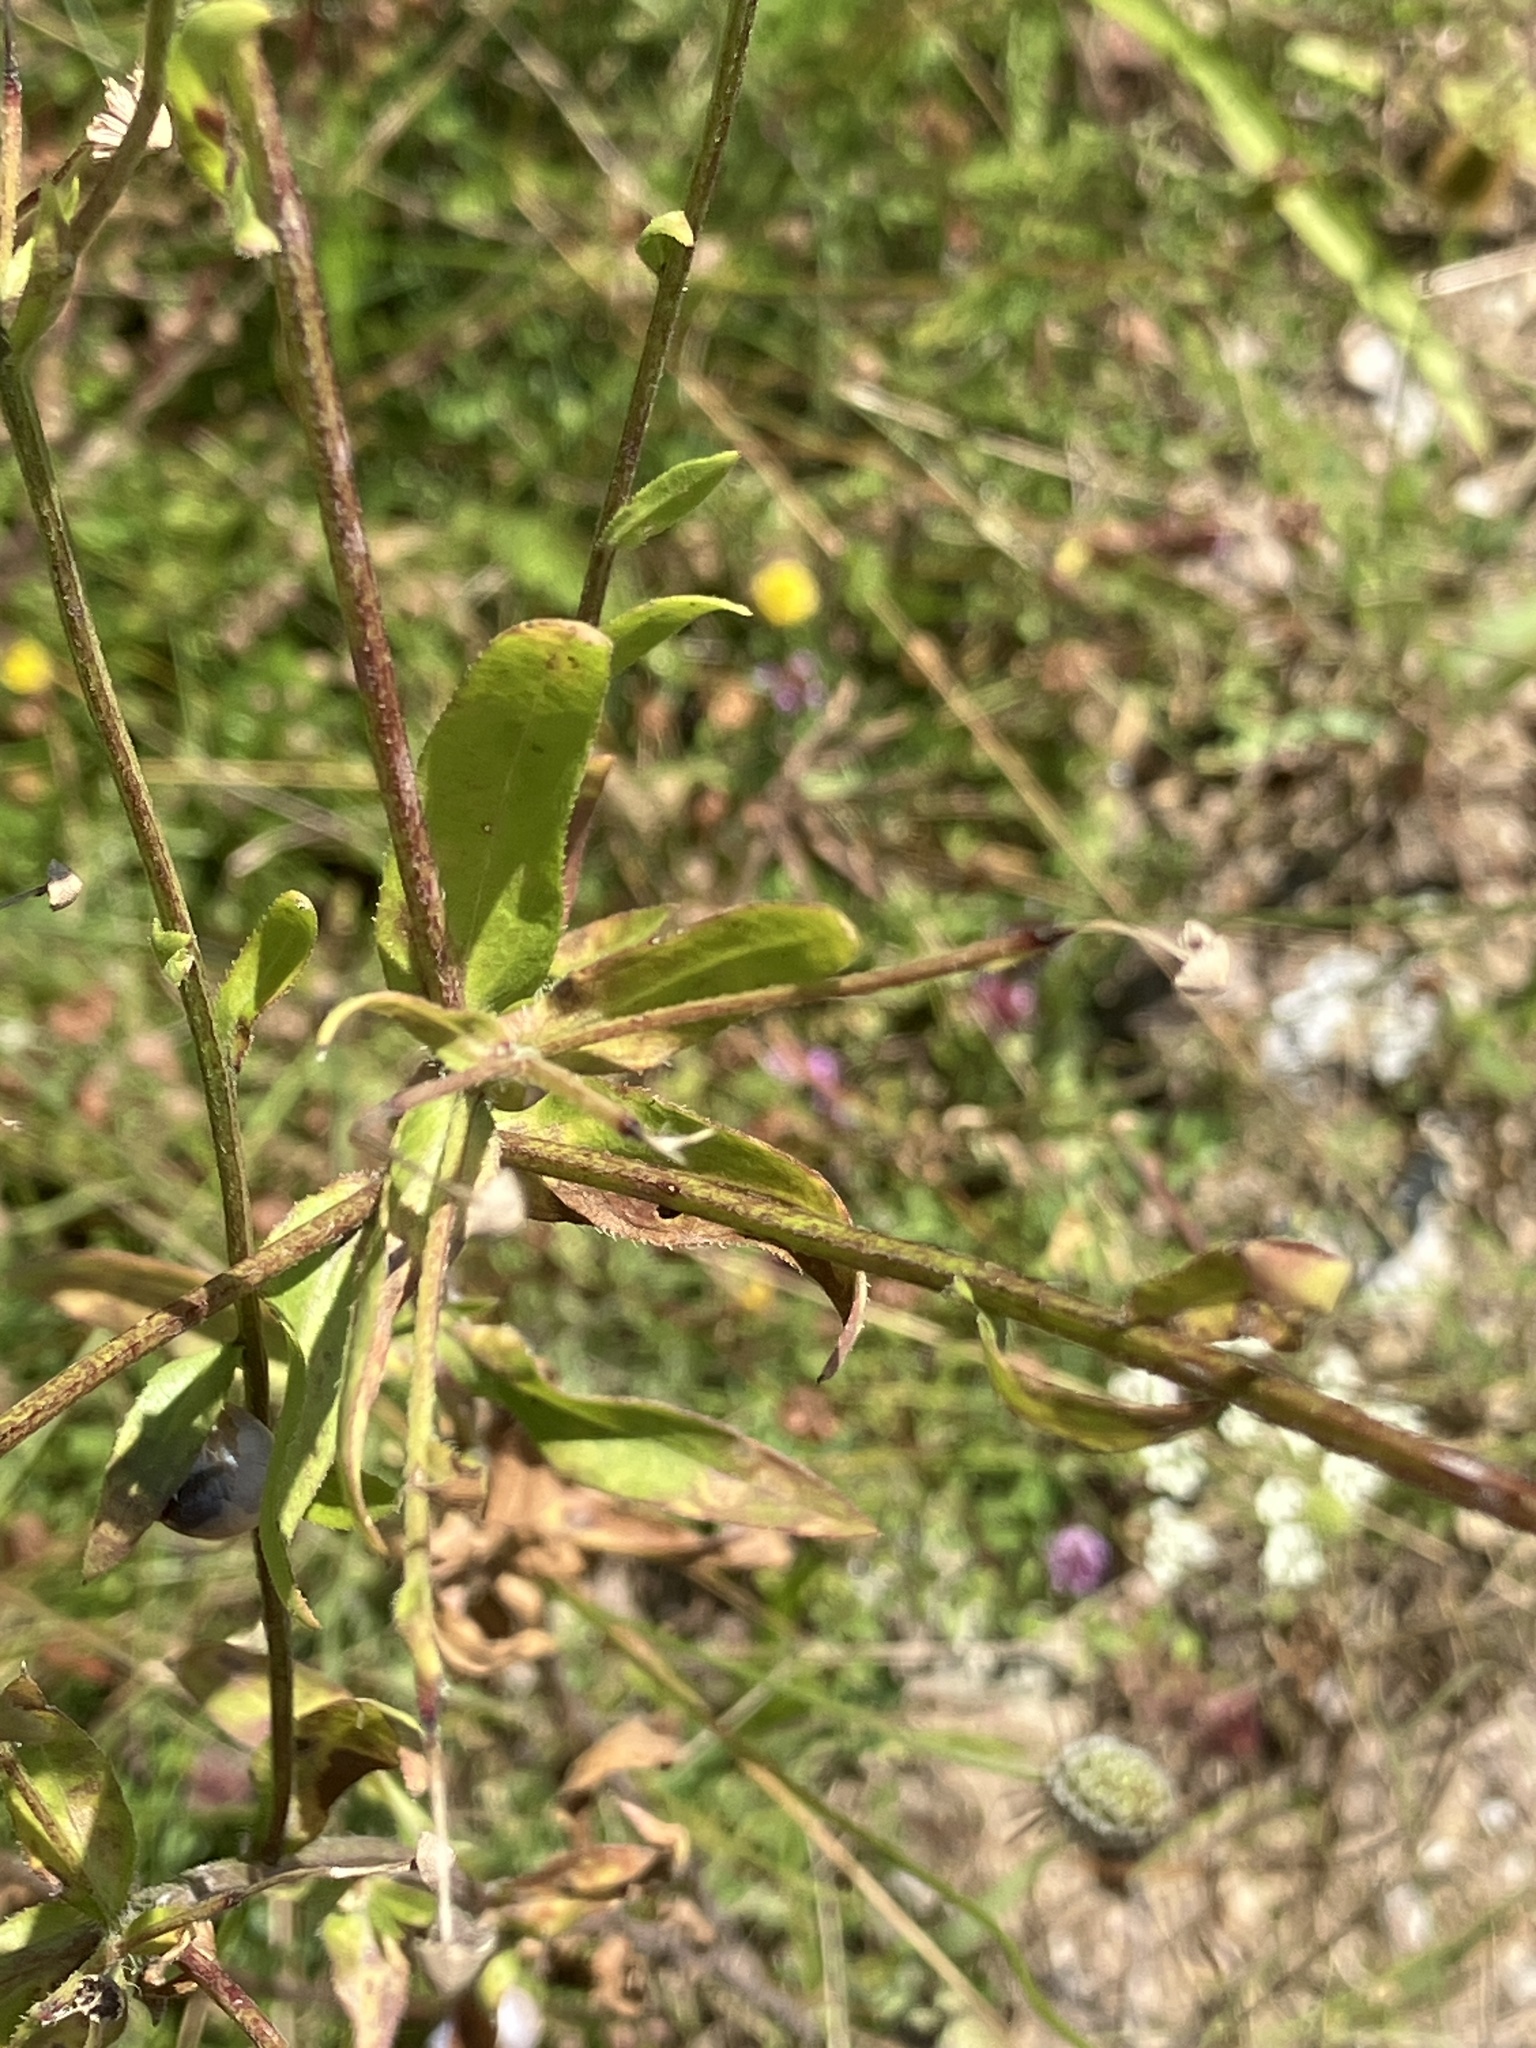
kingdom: Plantae
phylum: Tracheophyta
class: Magnoliopsida
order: Asterales
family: Asteraceae
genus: Erigeron
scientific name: Erigeron annuus
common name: Tall fleabane
